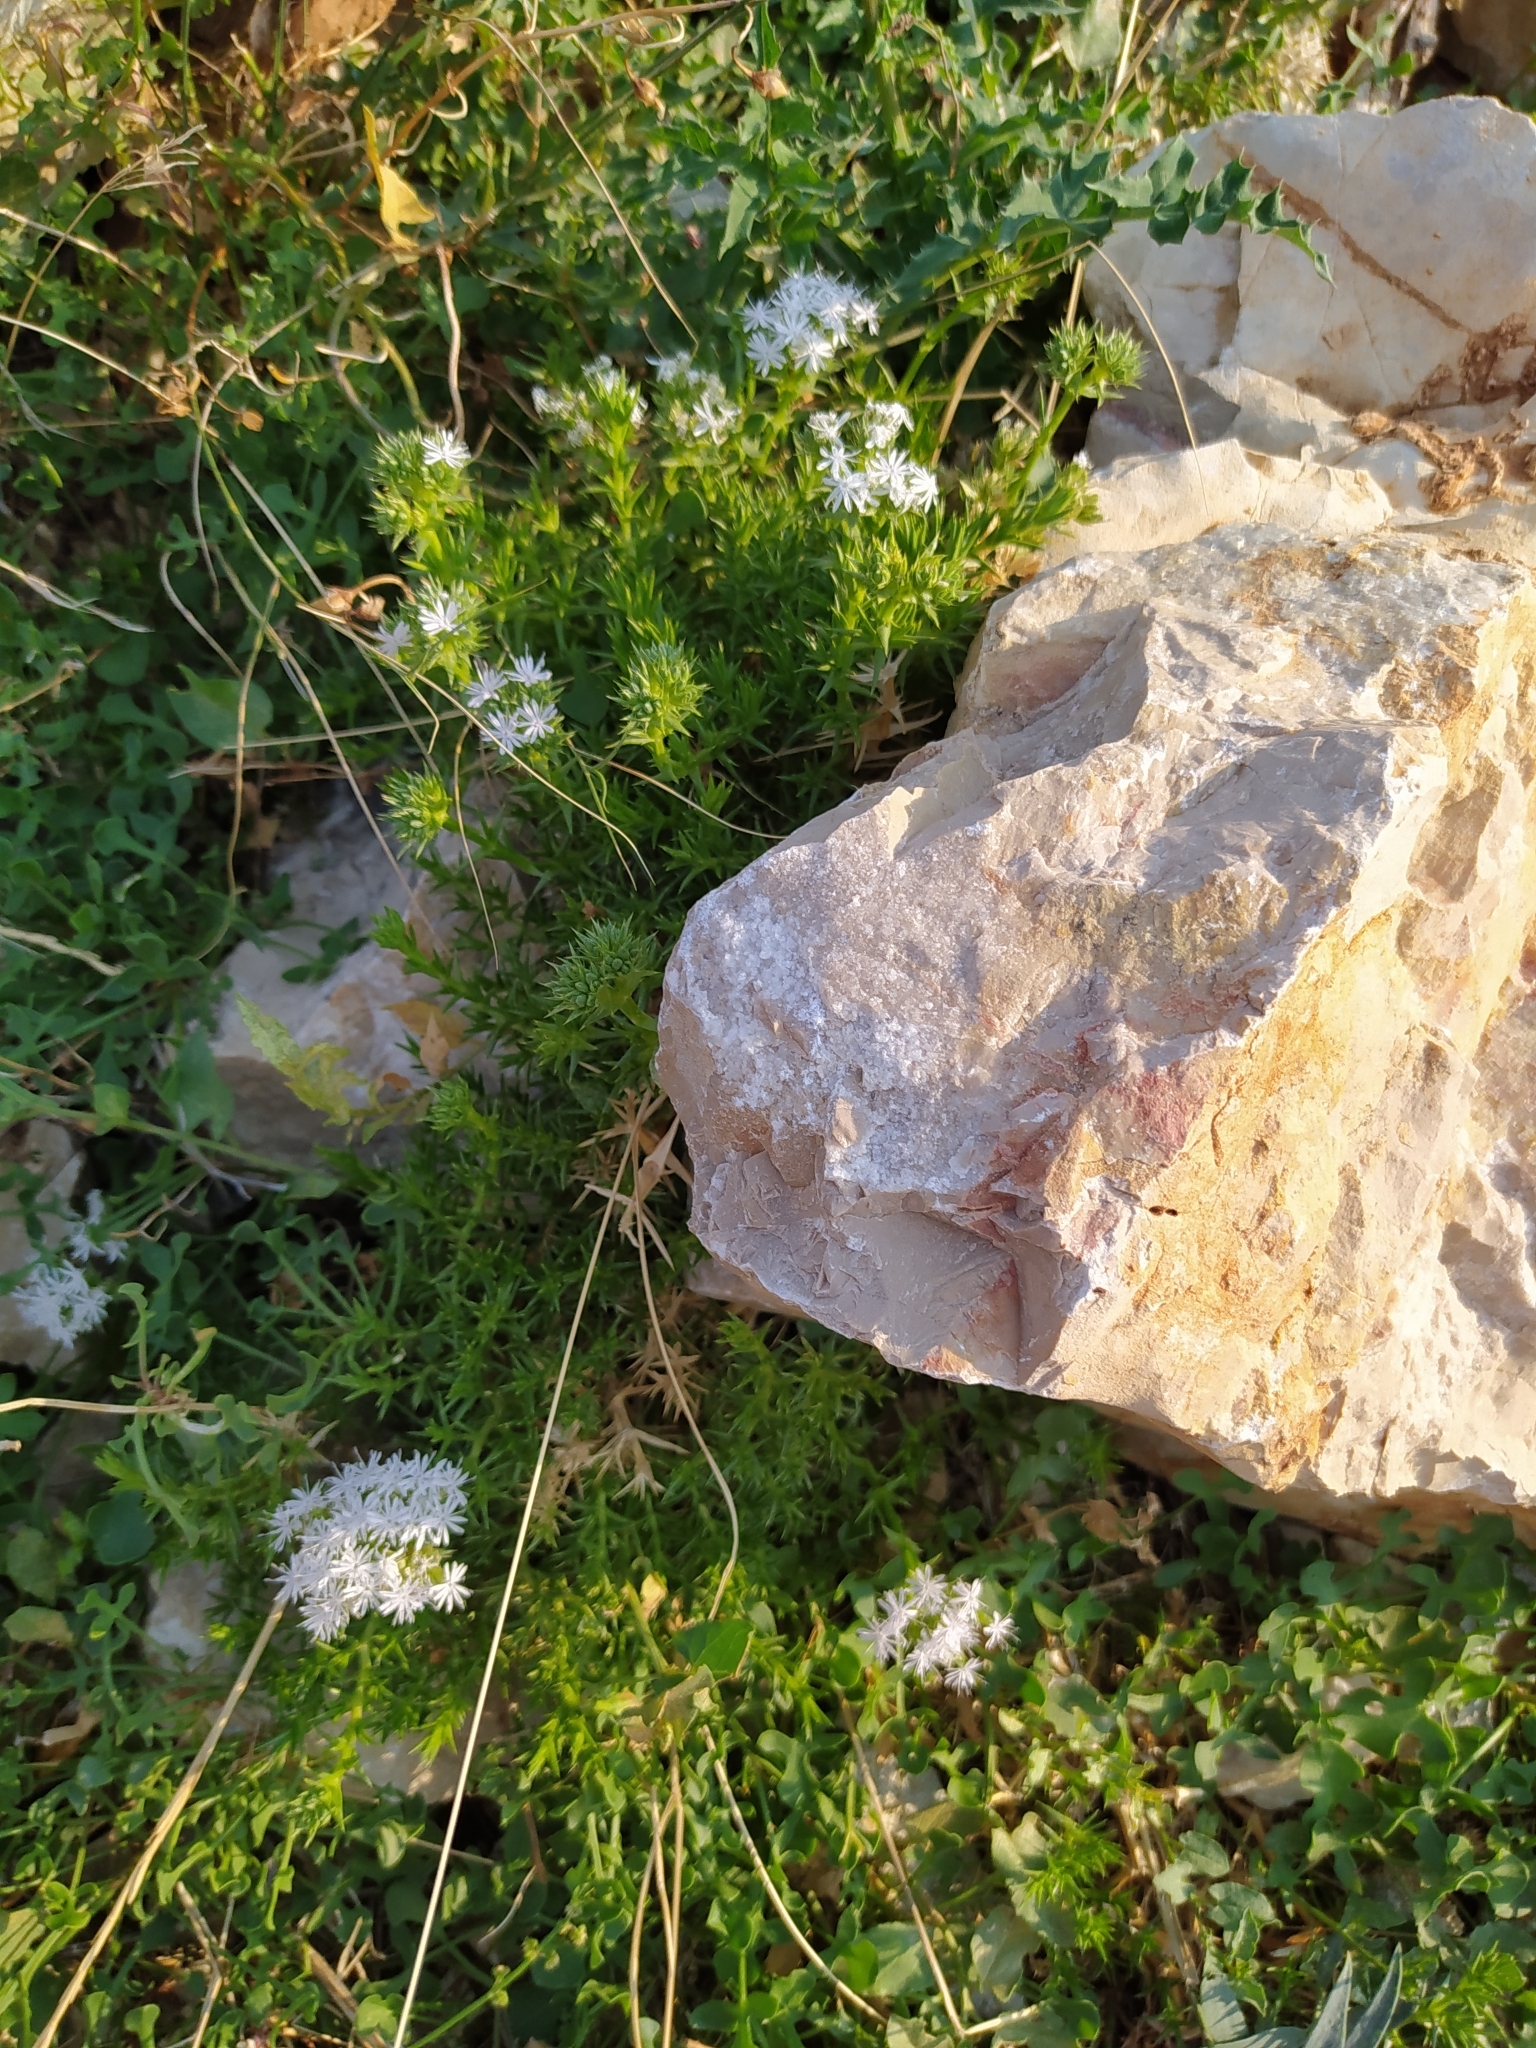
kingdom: Plantae
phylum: Tracheophyta
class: Magnoliopsida
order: Caryophyllales
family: Caryophyllaceae
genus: Drypis
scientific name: Drypis spinosa
